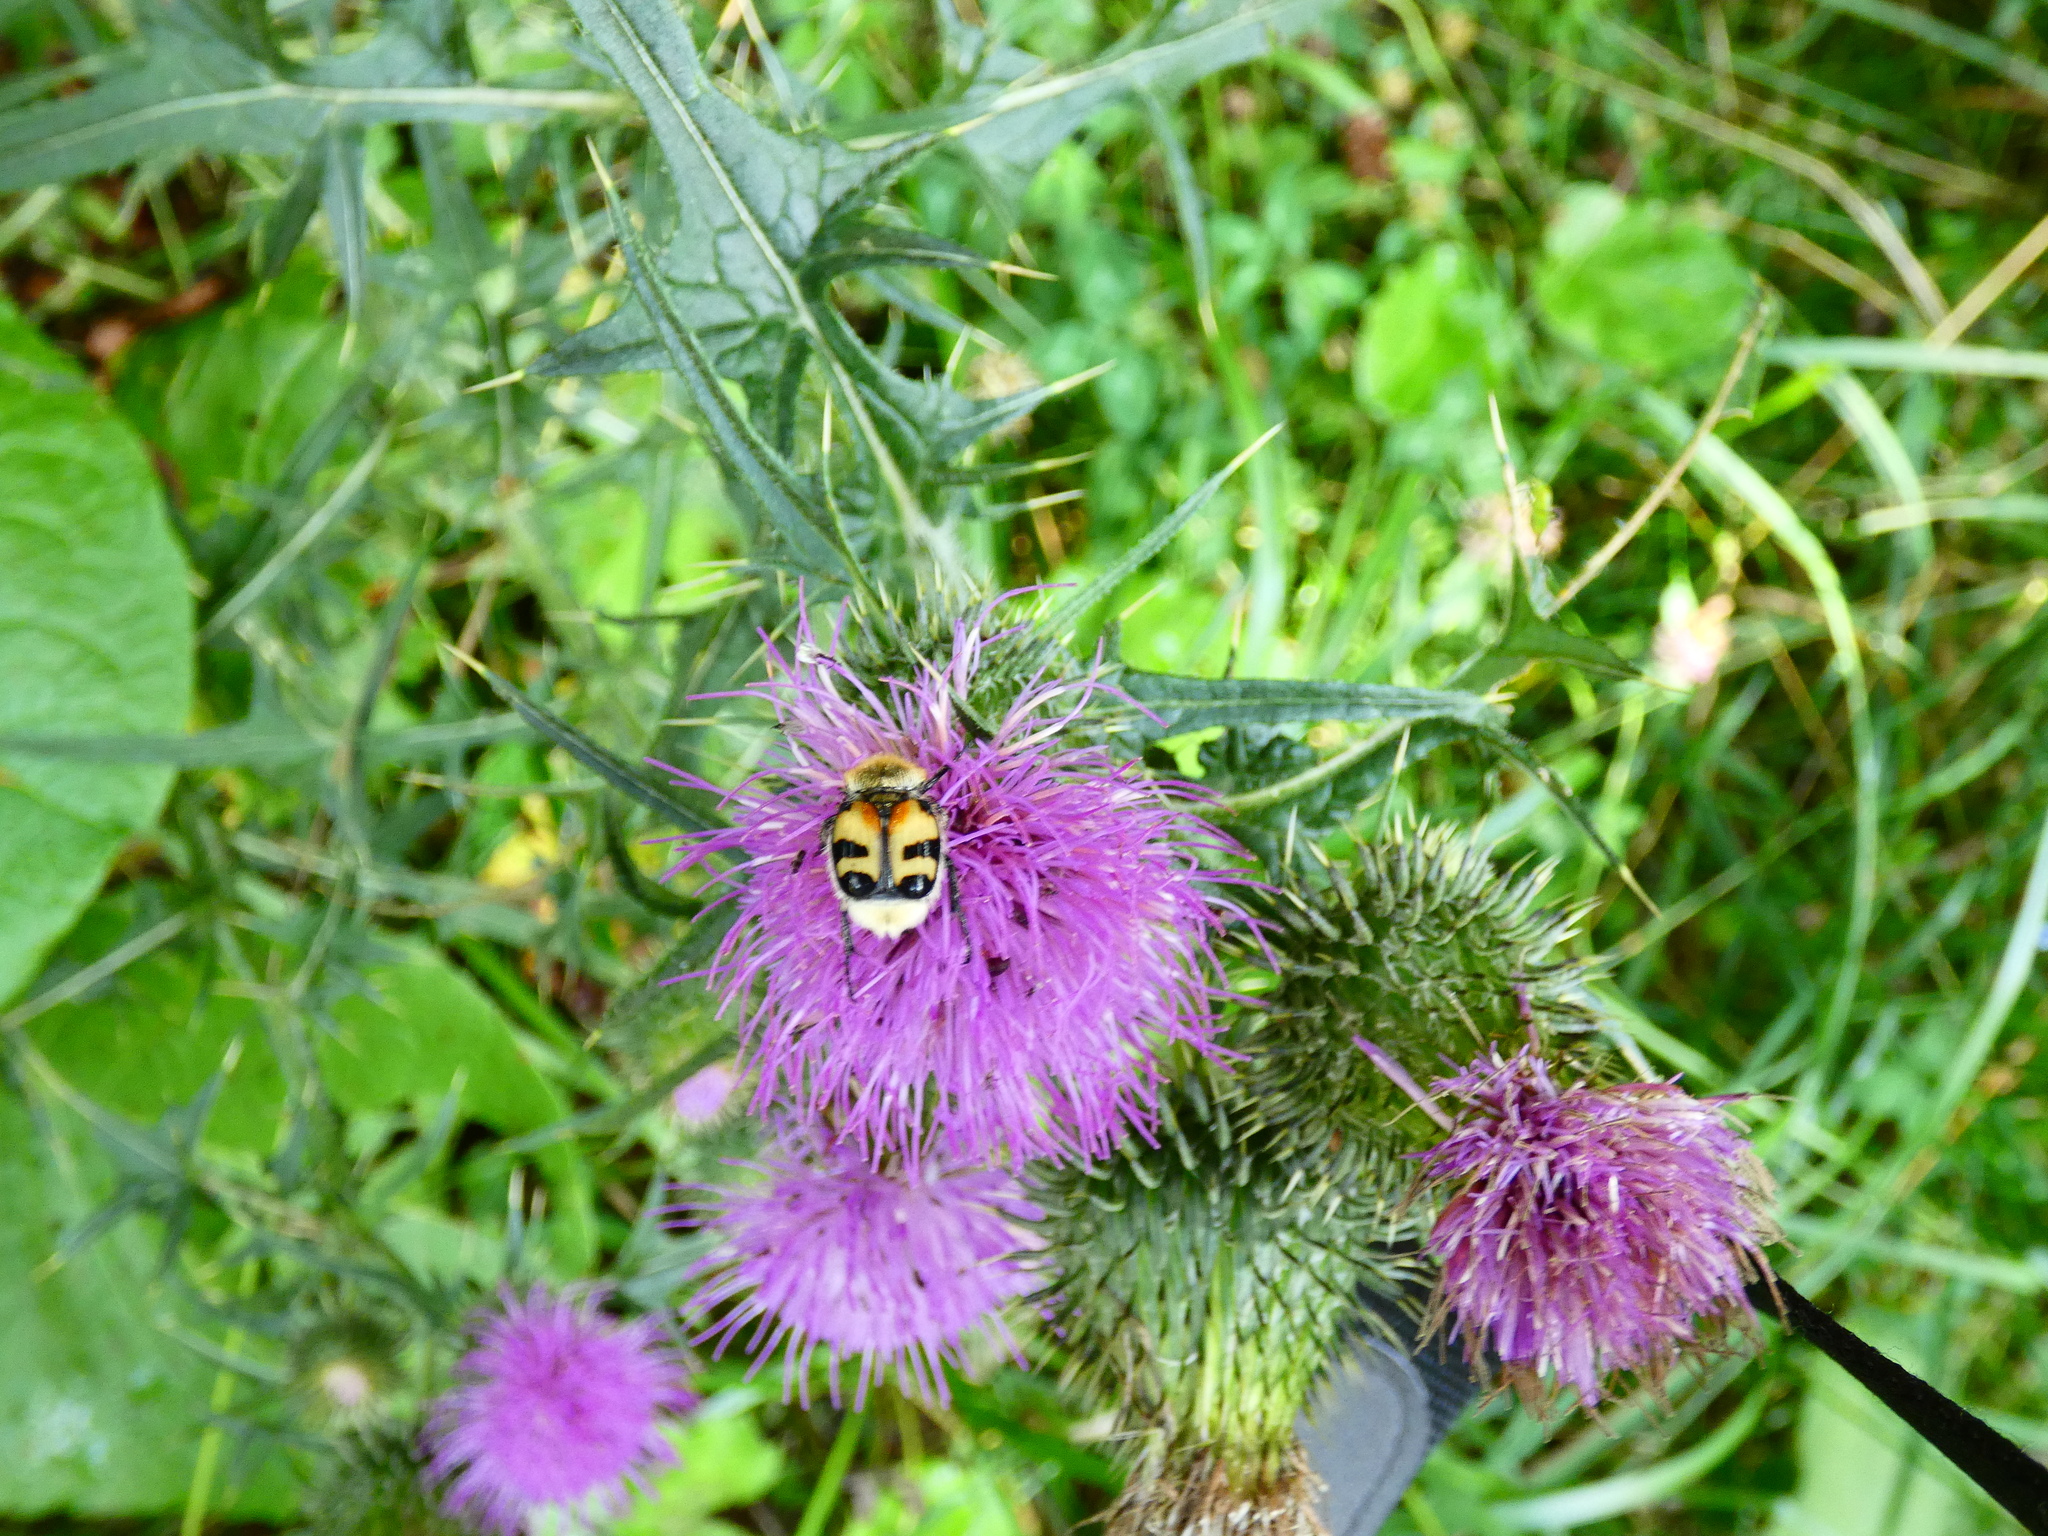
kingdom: Animalia
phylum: Arthropoda
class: Insecta
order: Coleoptera
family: Scarabaeidae
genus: Trichius
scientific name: Trichius fasciatus
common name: Bee beetle
